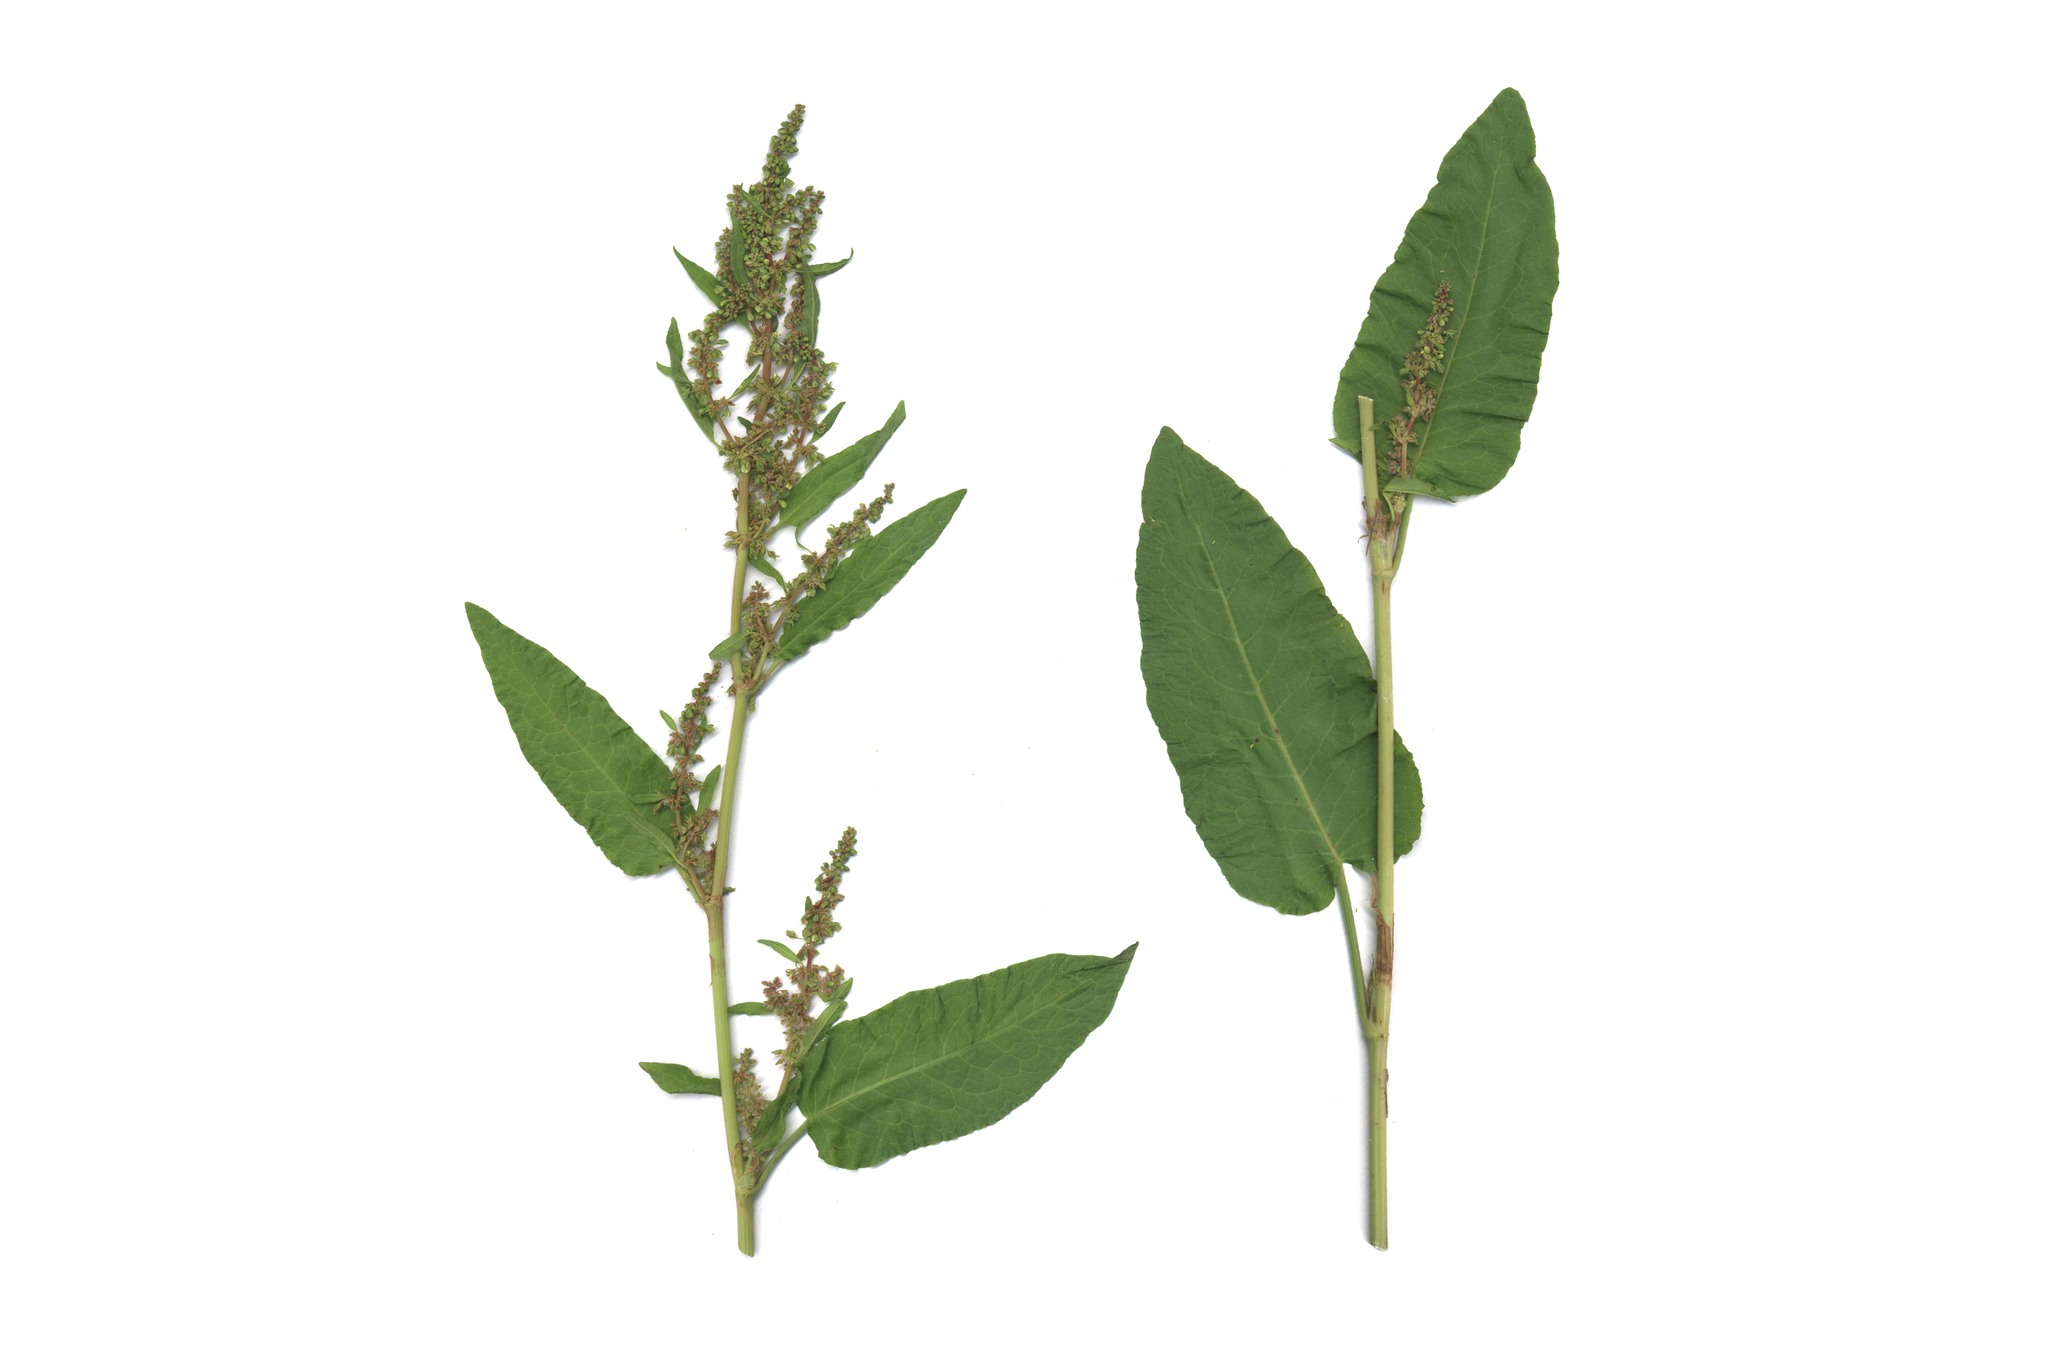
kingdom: Plantae
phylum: Tracheophyta
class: Magnoliopsida
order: Caryophyllales
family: Polygonaceae
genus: Rumex
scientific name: Rumex obtusifolius
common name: Bitter dock
